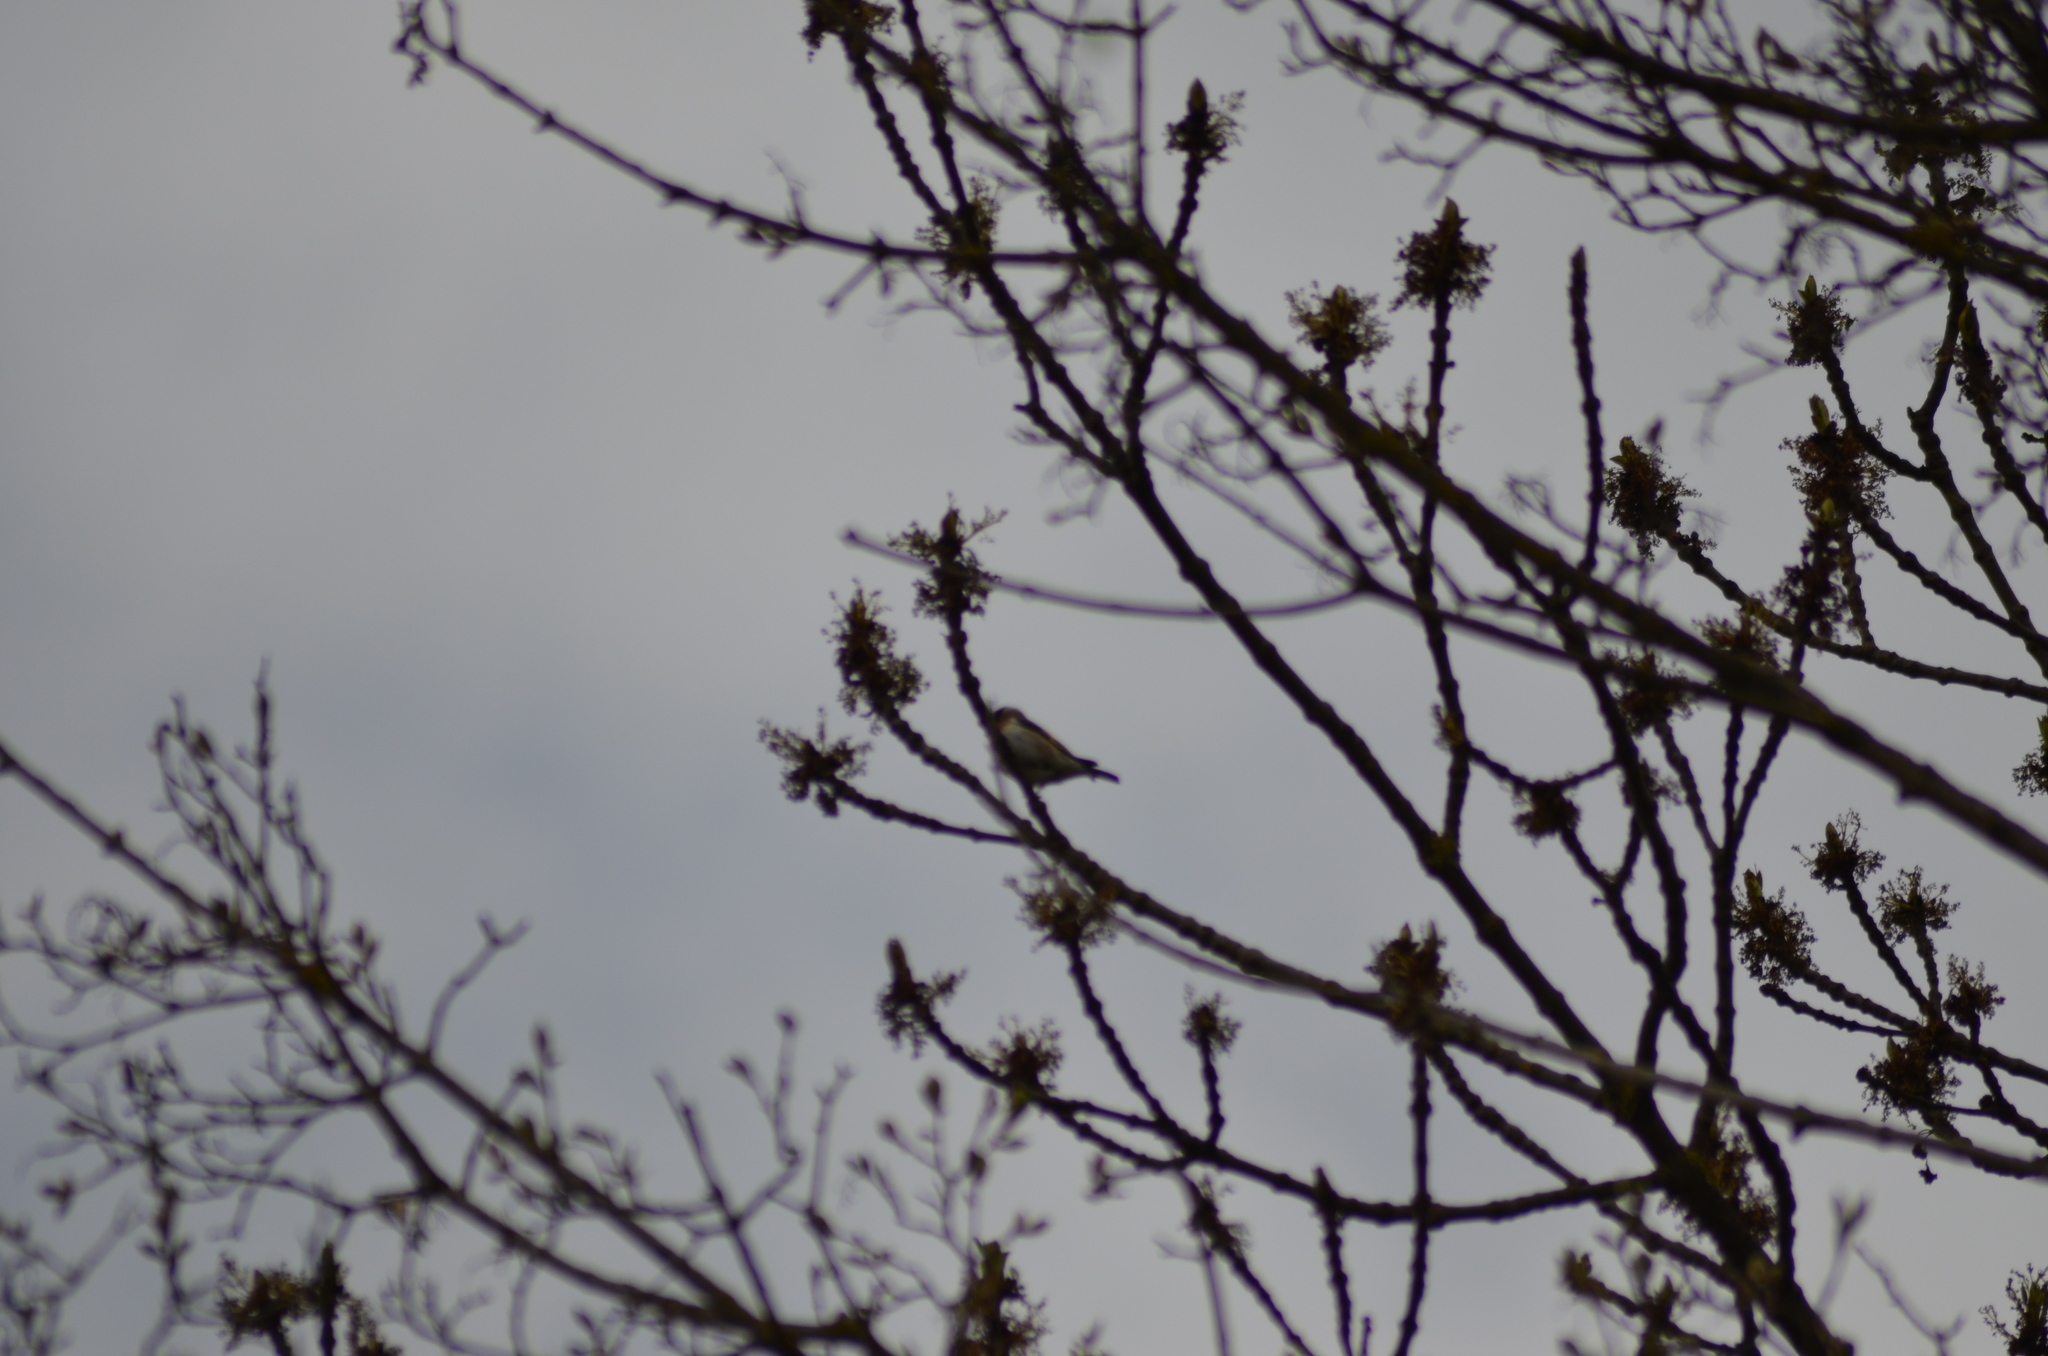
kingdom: Animalia
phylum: Chordata
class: Aves
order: Passeriformes
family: Fringillidae
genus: Carduelis
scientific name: Carduelis carduelis
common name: European goldfinch
